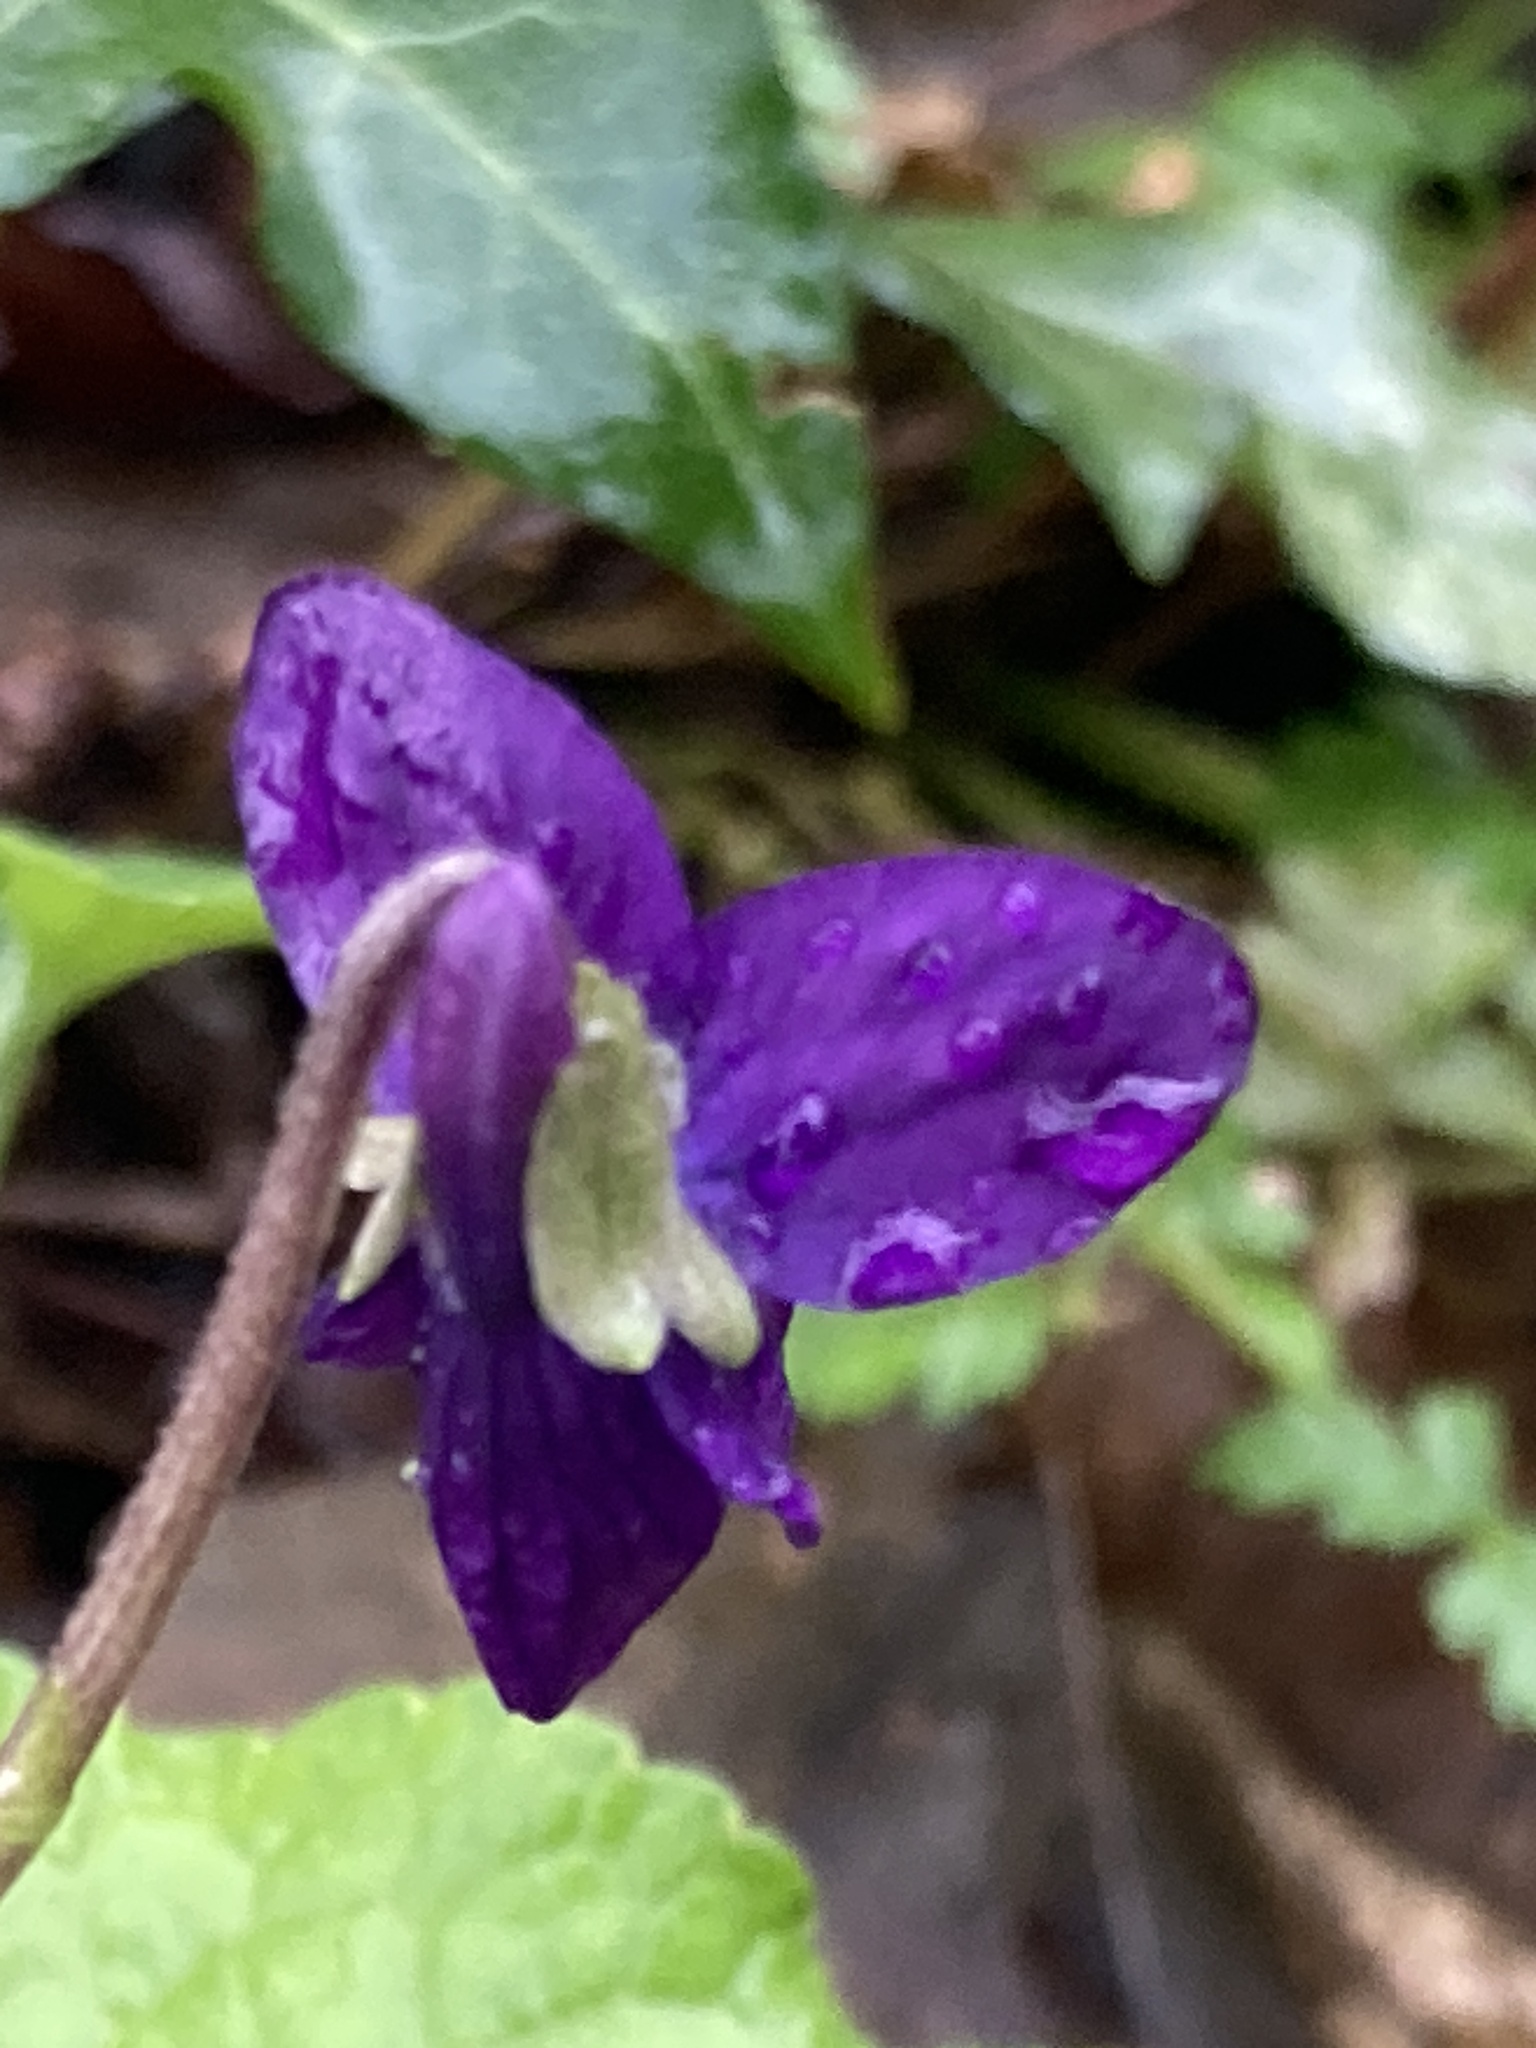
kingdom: Plantae
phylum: Tracheophyta
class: Magnoliopsida
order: Malpighiales
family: Violaceae
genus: Viola
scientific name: Viola odorata
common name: Sweet violet
